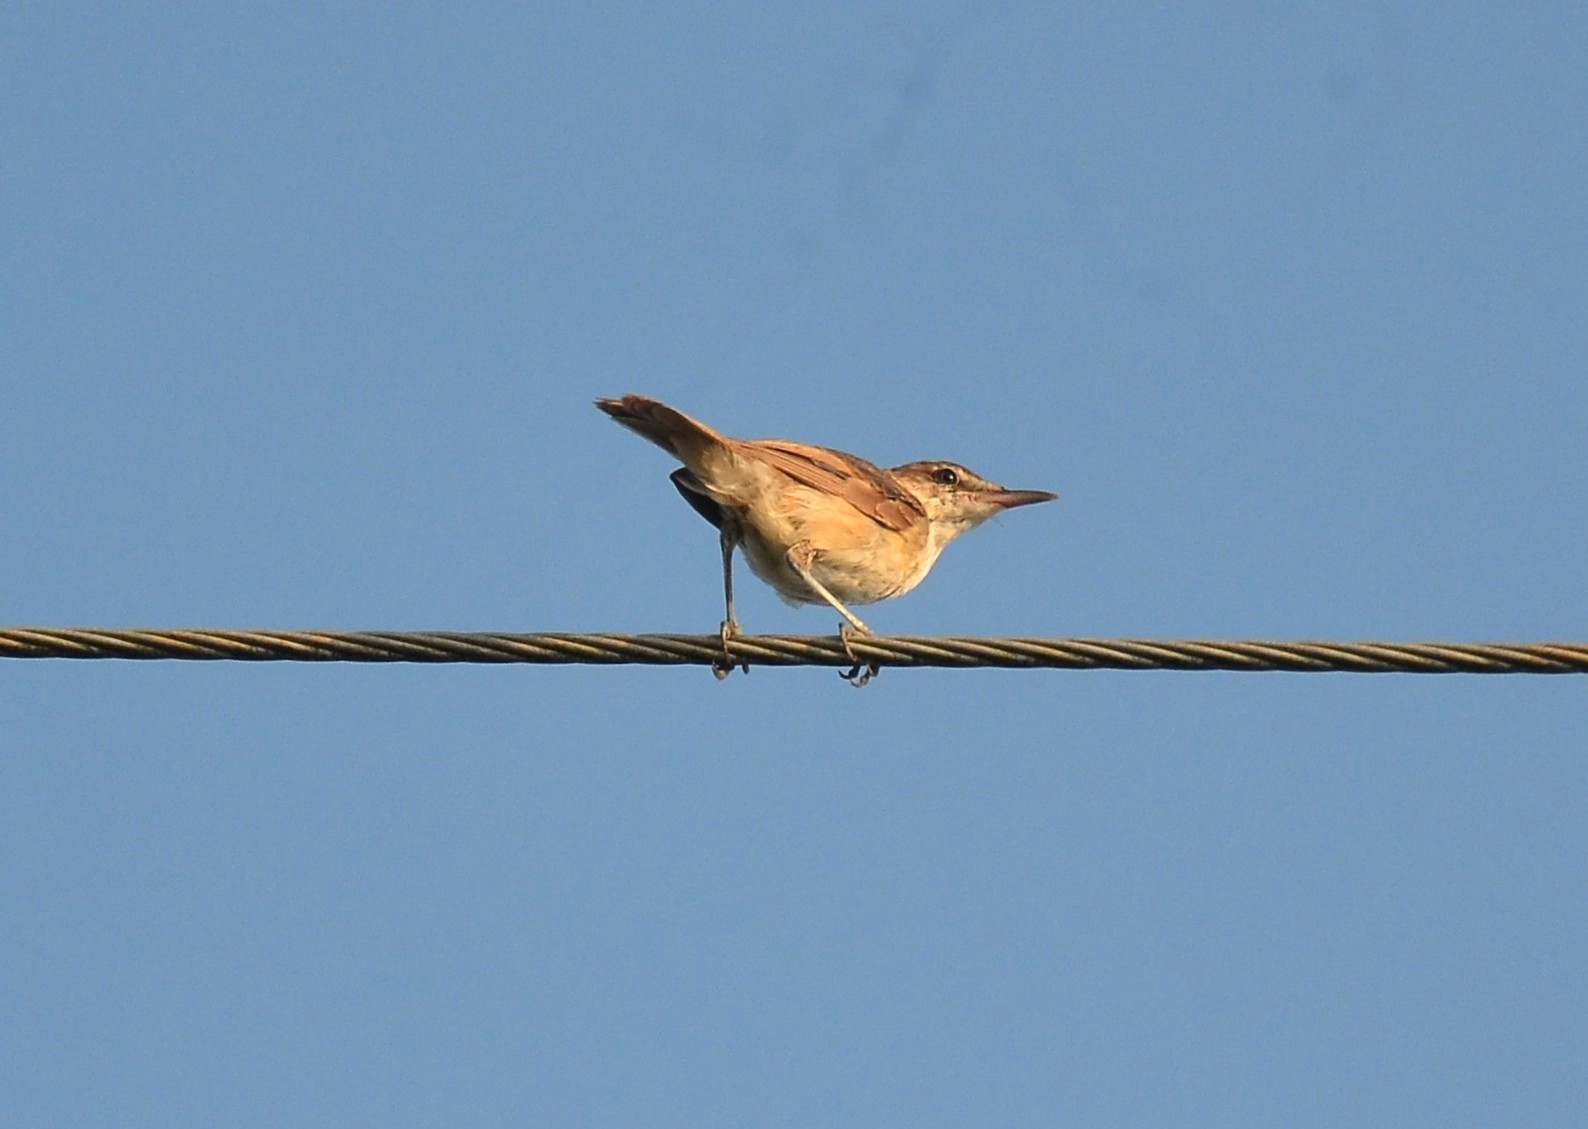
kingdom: Animalia
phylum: Chordata
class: Aves
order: Passeriformes
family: Cisticolidae
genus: Cisticola
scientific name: Cisticola juncidis
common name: Zitting cisticola
